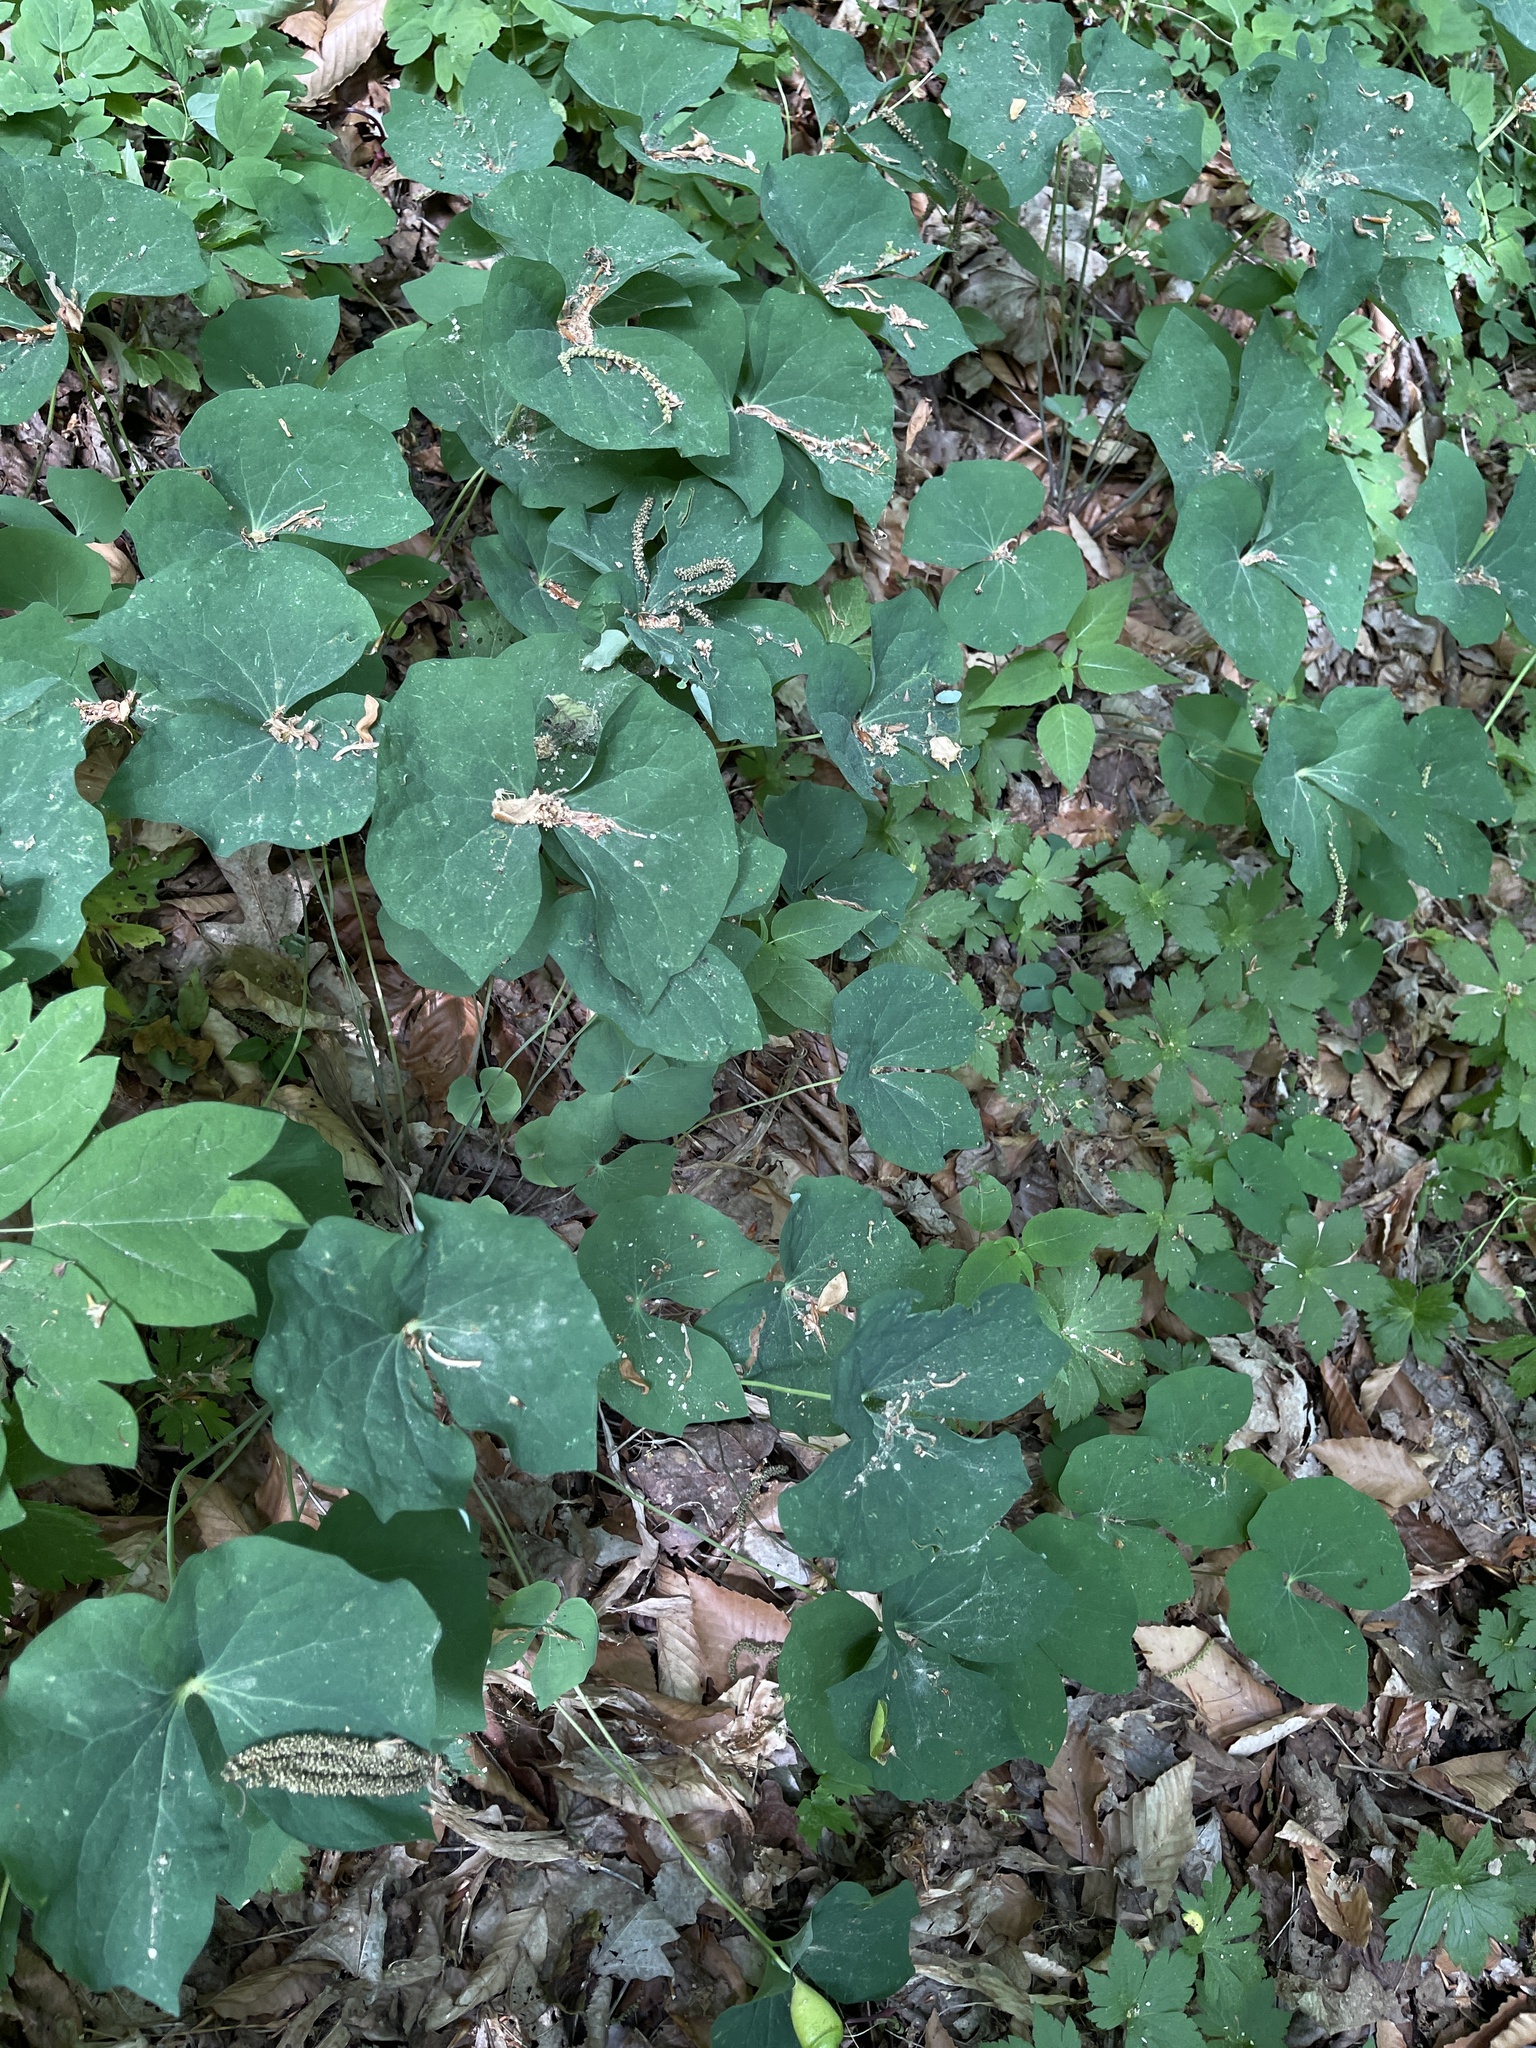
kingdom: Plantae
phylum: Tracheophyta
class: Magnoliopsida
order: Ranunculales
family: Berberidaceae
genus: Jeffersonia
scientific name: Jeffersonia diphylla
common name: Rheumatism-root
